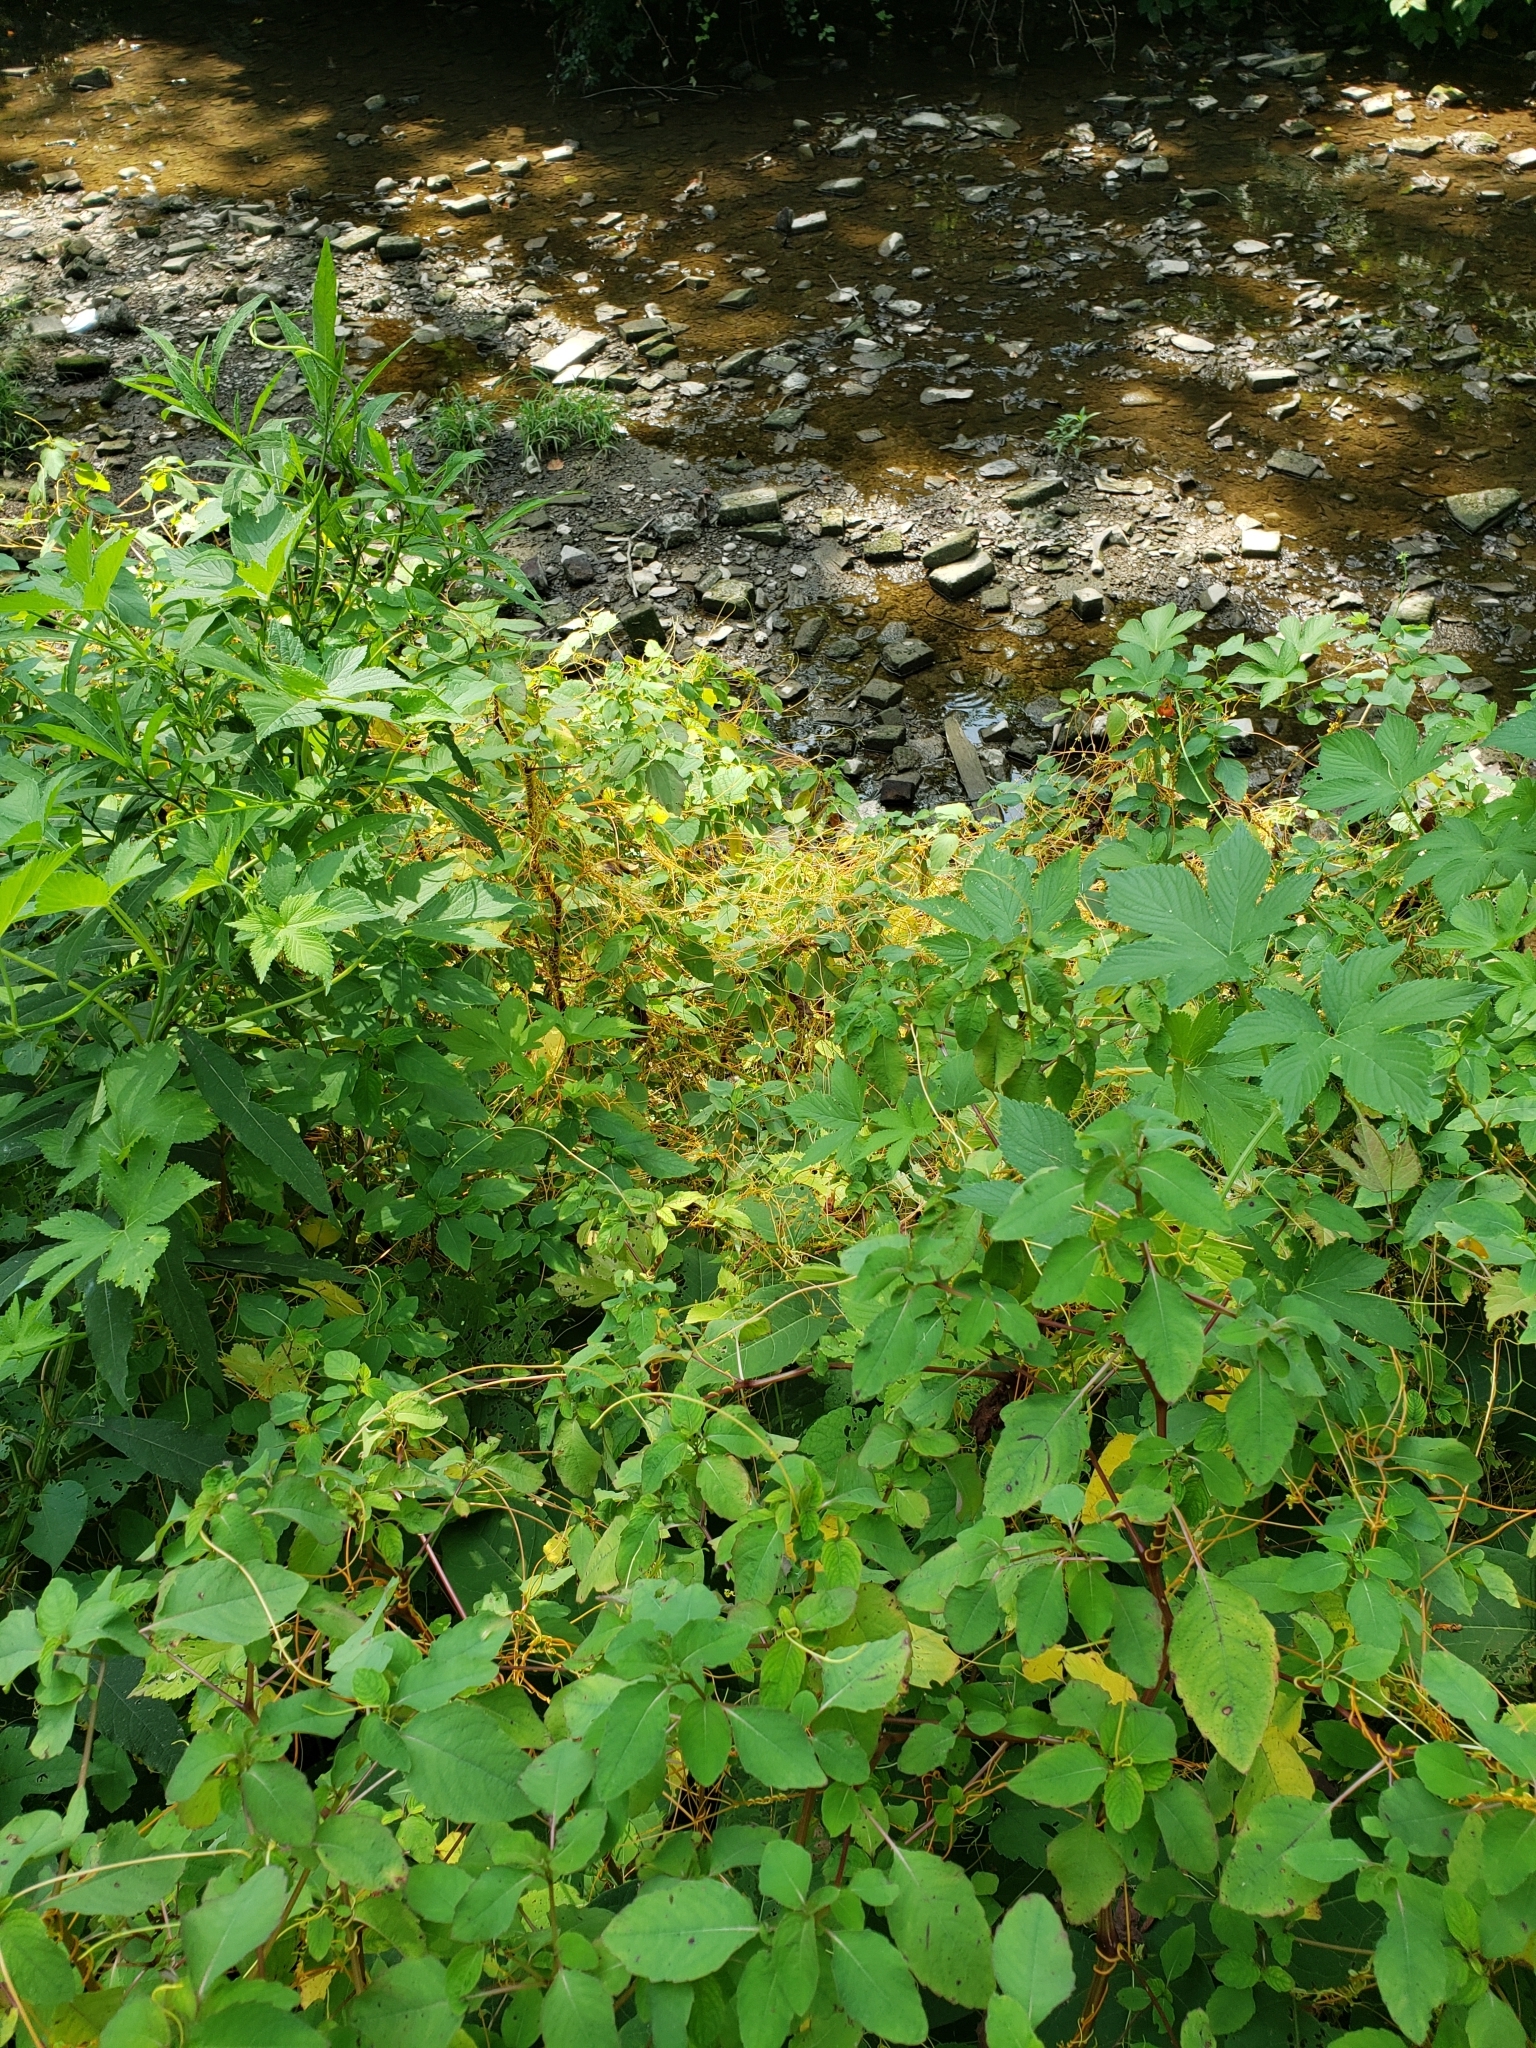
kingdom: Plantae
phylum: Tracheophyta
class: Magnoliopsida
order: Solanales
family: Convolvulaceae
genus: Cuscuta
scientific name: Cuscuta gronovii
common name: Common dodder
